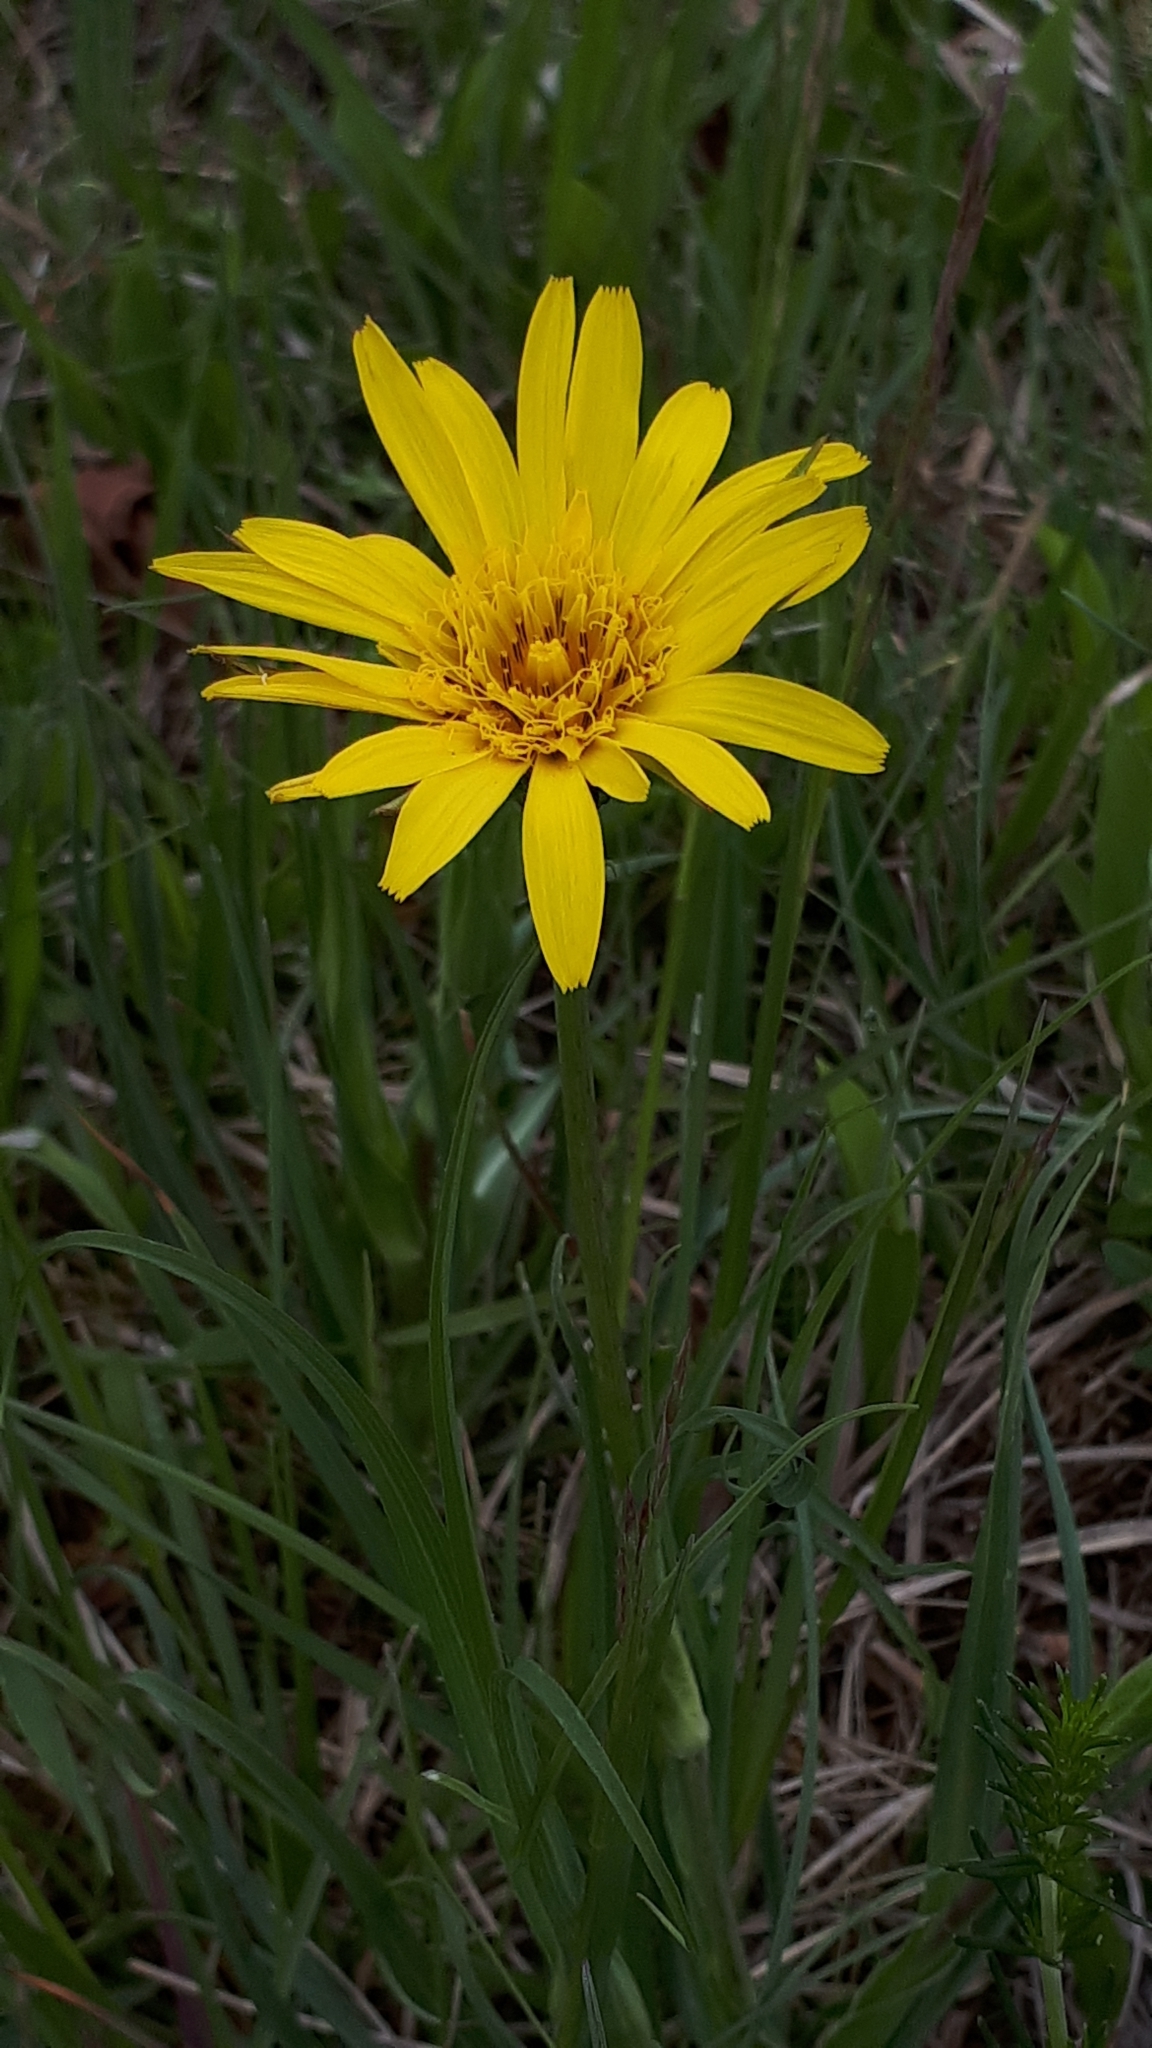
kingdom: Plantae
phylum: Tracheophyta
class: Magnoliopsida
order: Asterales
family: Asteraceae
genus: Tragopogon
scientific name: Tragopogon orientalis
